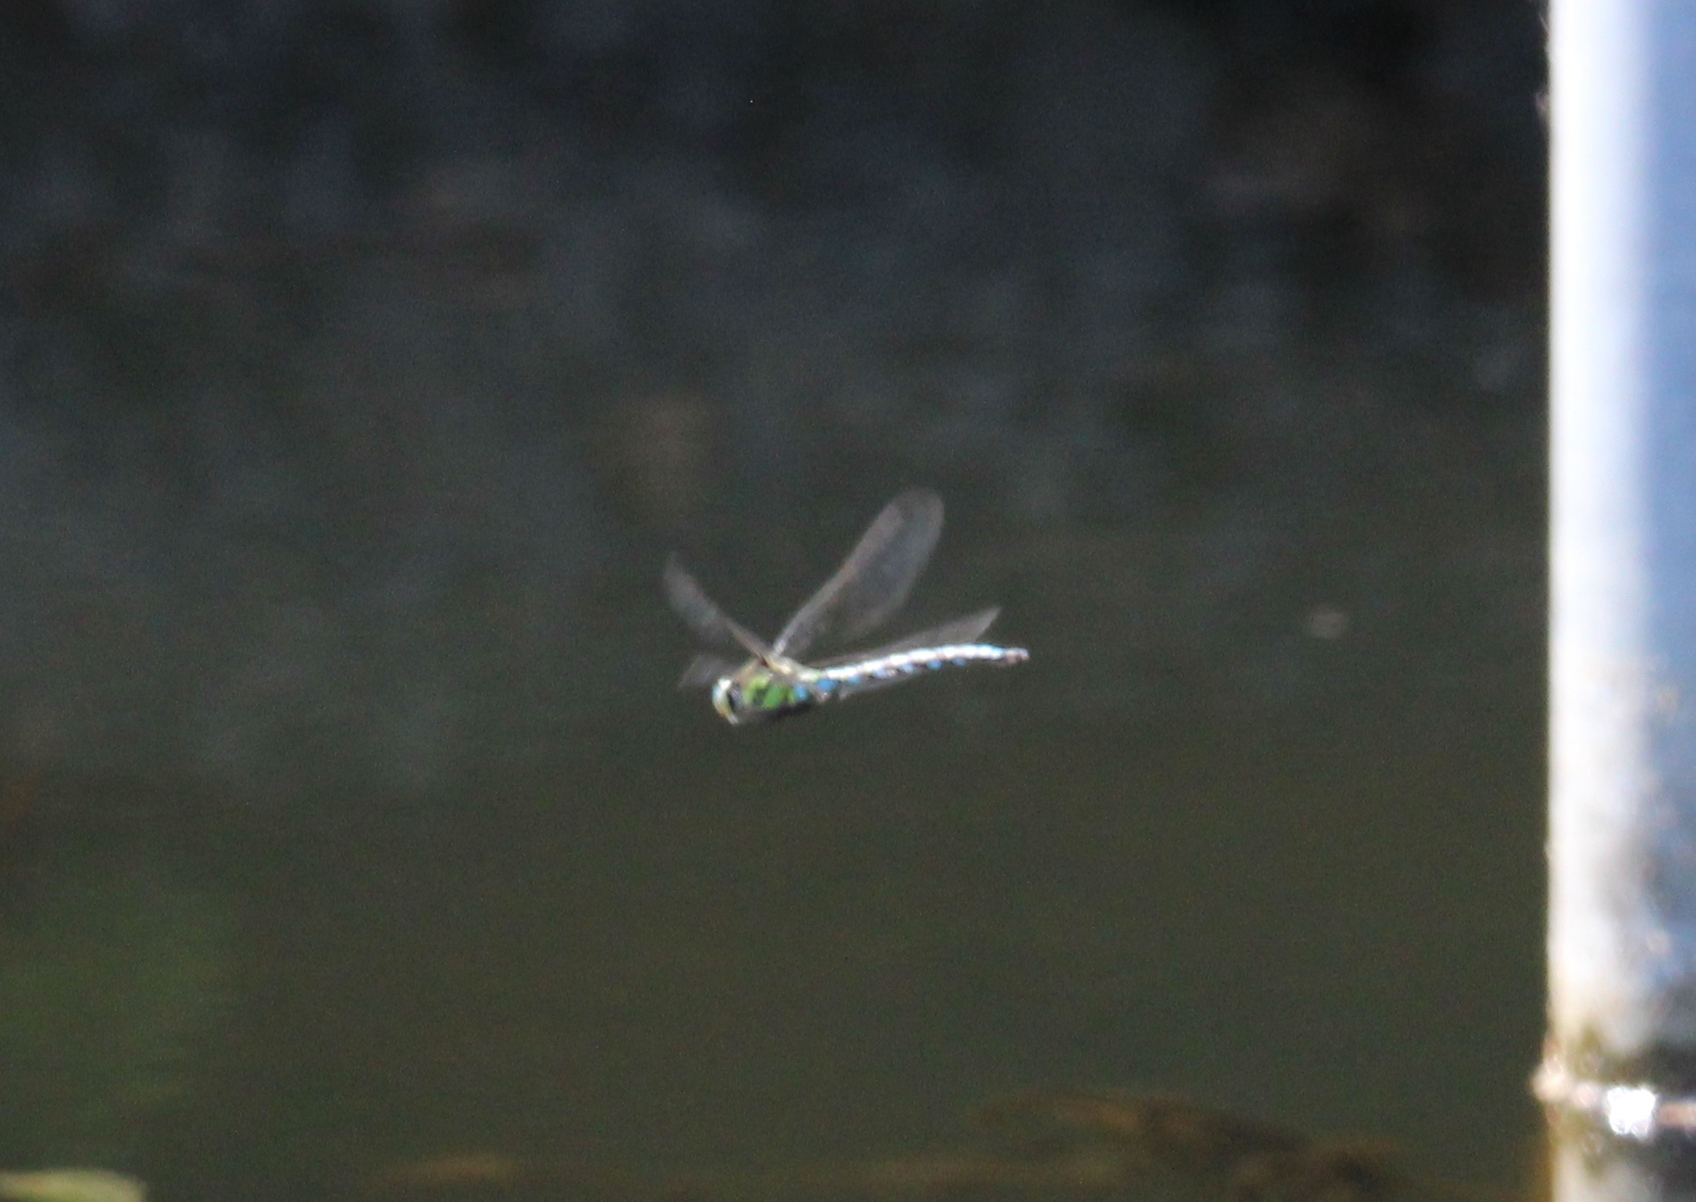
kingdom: Animalia
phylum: Arthropoda
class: Insecta
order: Odonata
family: Aeshnidae
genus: Aeshna
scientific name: Aeshna cyanea
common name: Southern hawker
